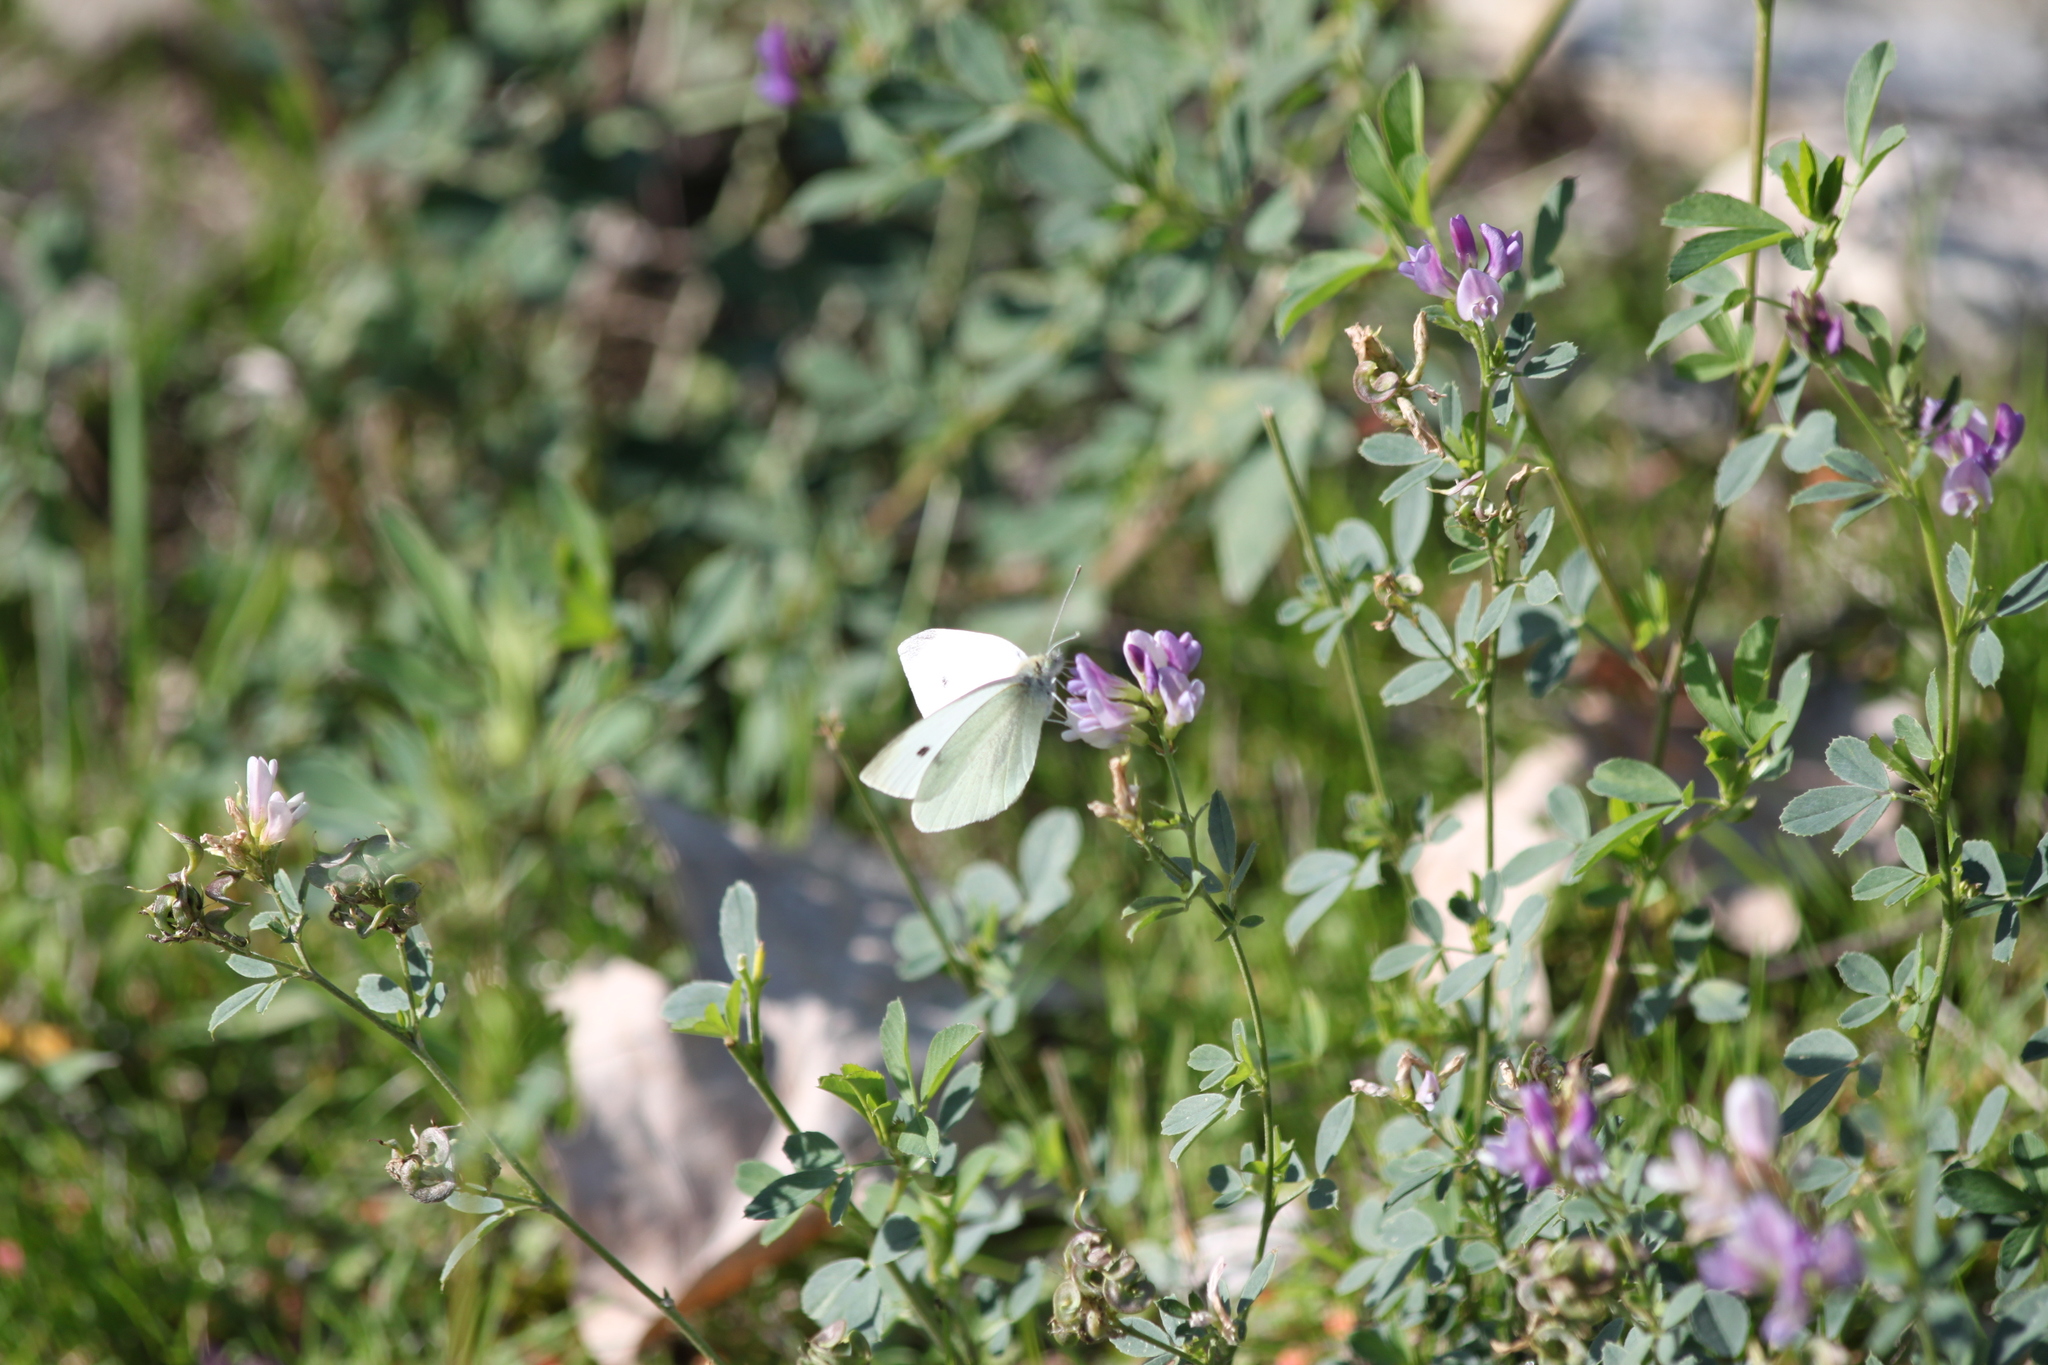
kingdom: Animalia
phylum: Arthropoda
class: Insecta
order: Lepidoptera
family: Pieridae
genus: Pieris
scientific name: Pieris rapae
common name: Small white
